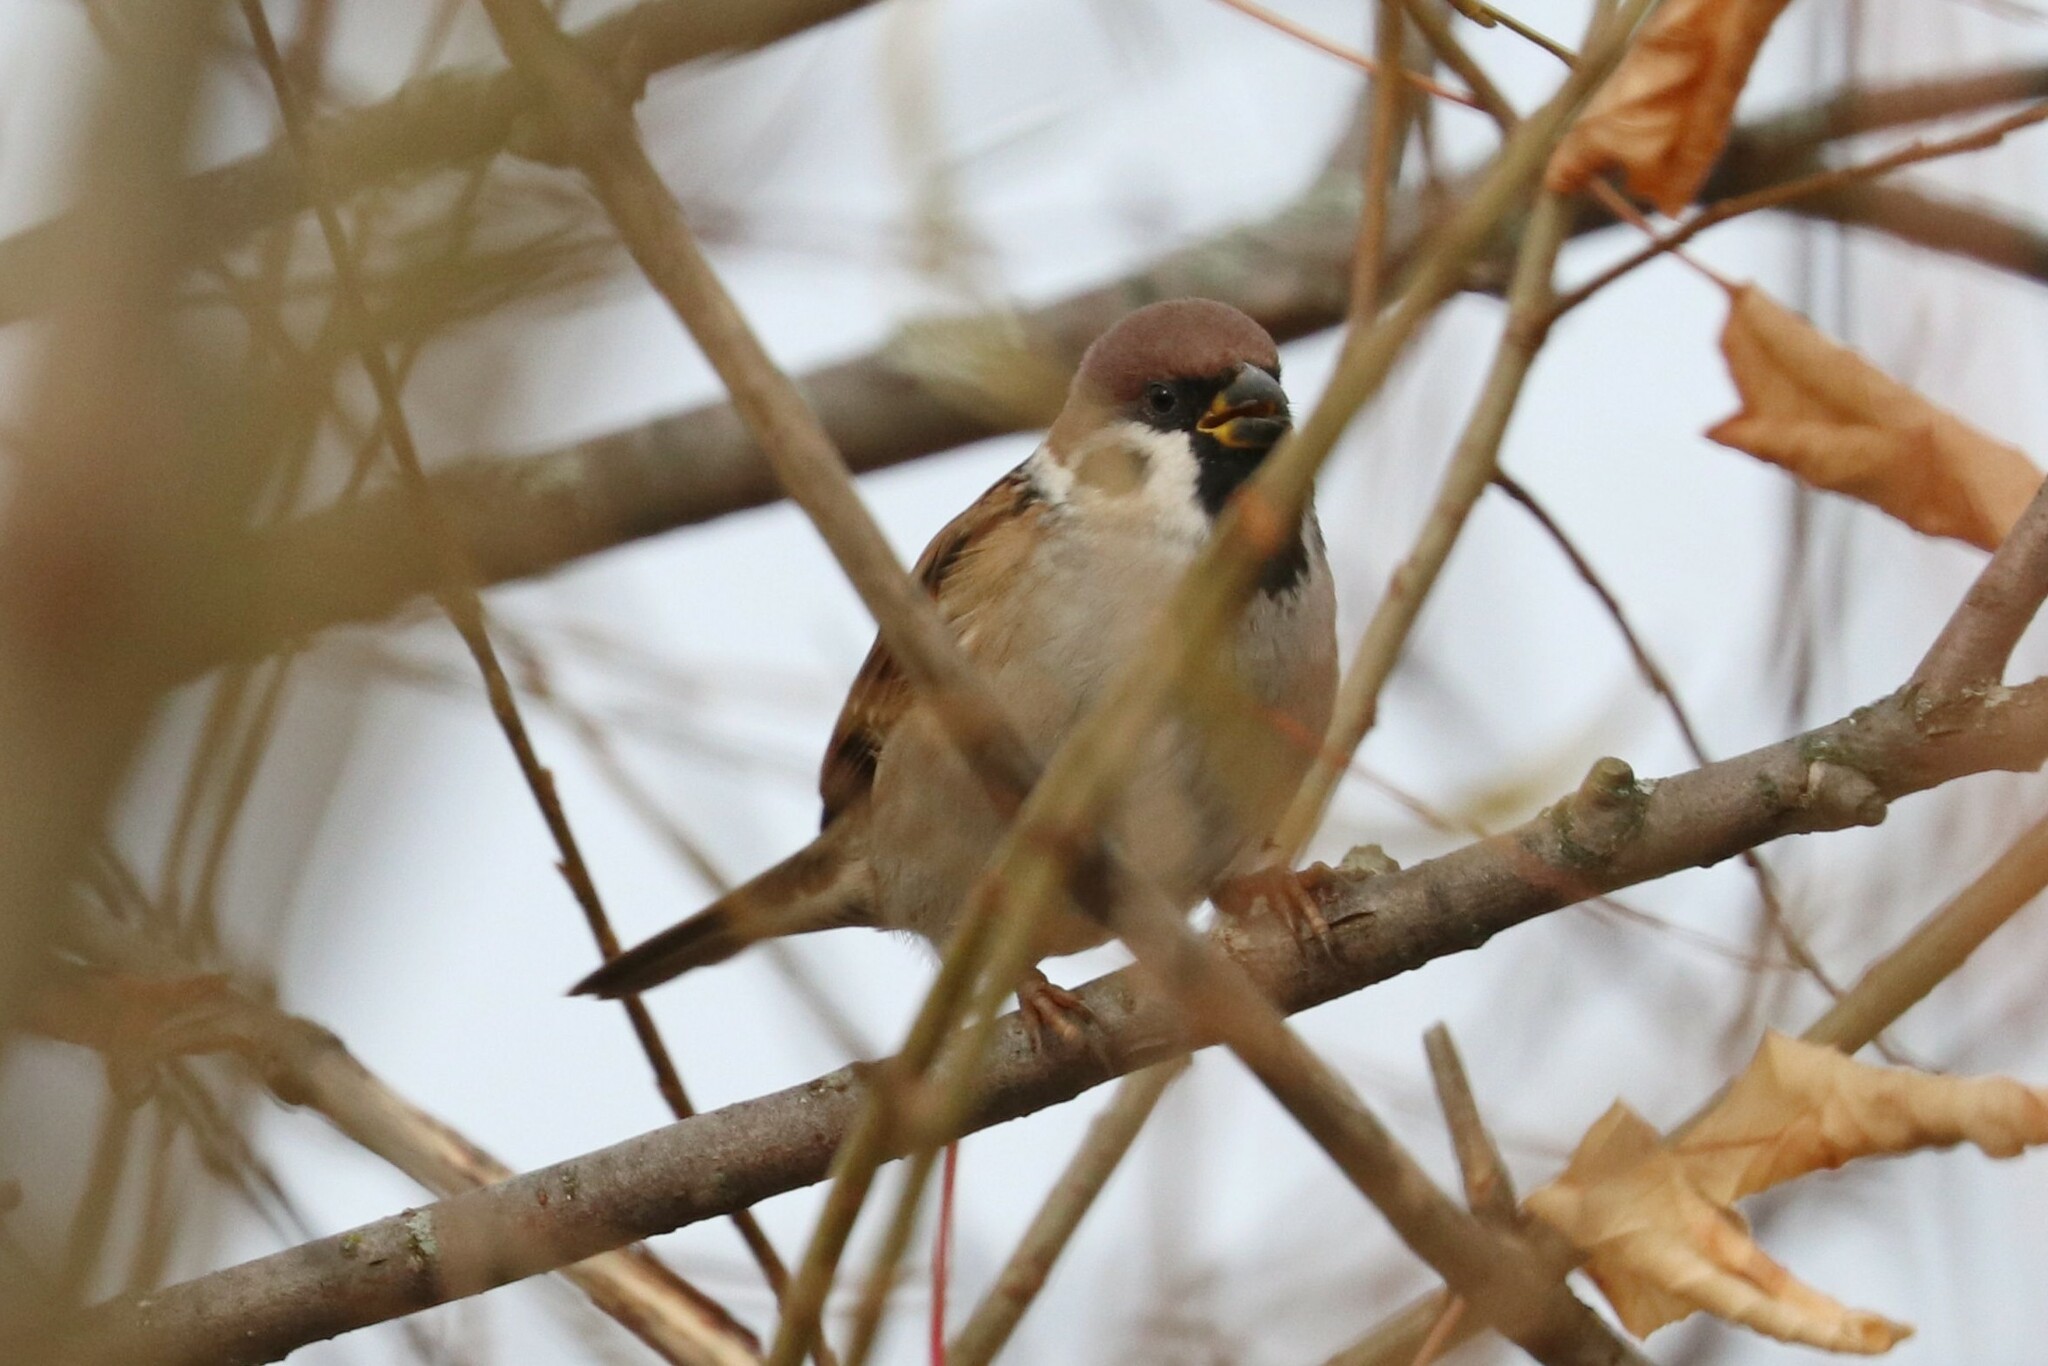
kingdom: Animalia
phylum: Chordata
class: Aves
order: Passeriformes
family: Passeridae
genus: Passer
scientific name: Passer montanus
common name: Eurasian tree sparrow
